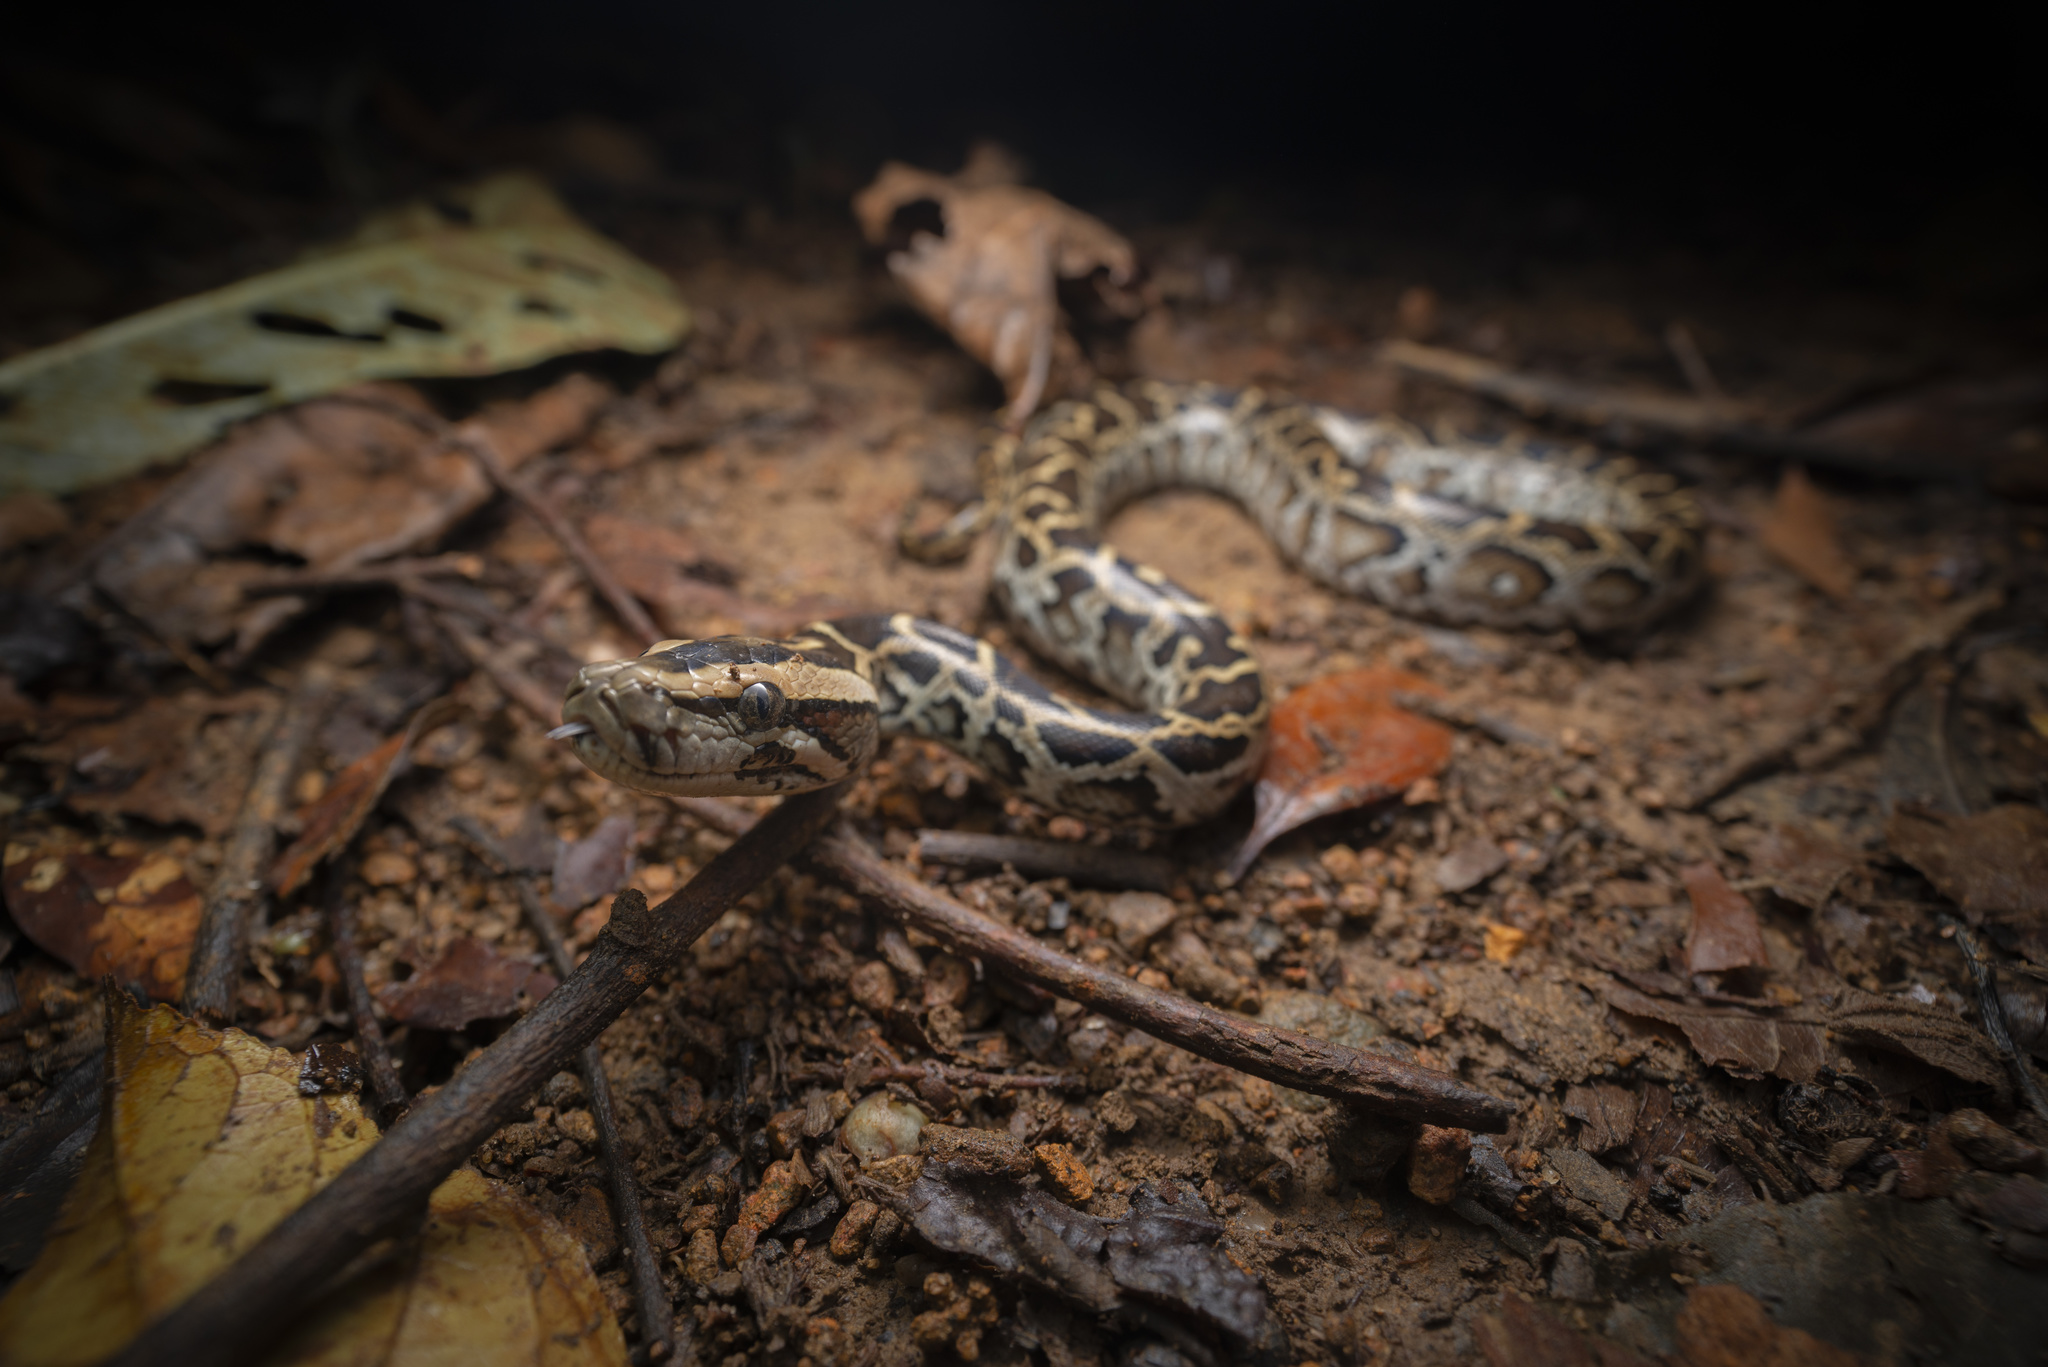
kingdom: Animalia
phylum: Chordata
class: Squamata
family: Pythonidae
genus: Python
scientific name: Python bivittatus
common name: Burmese python
